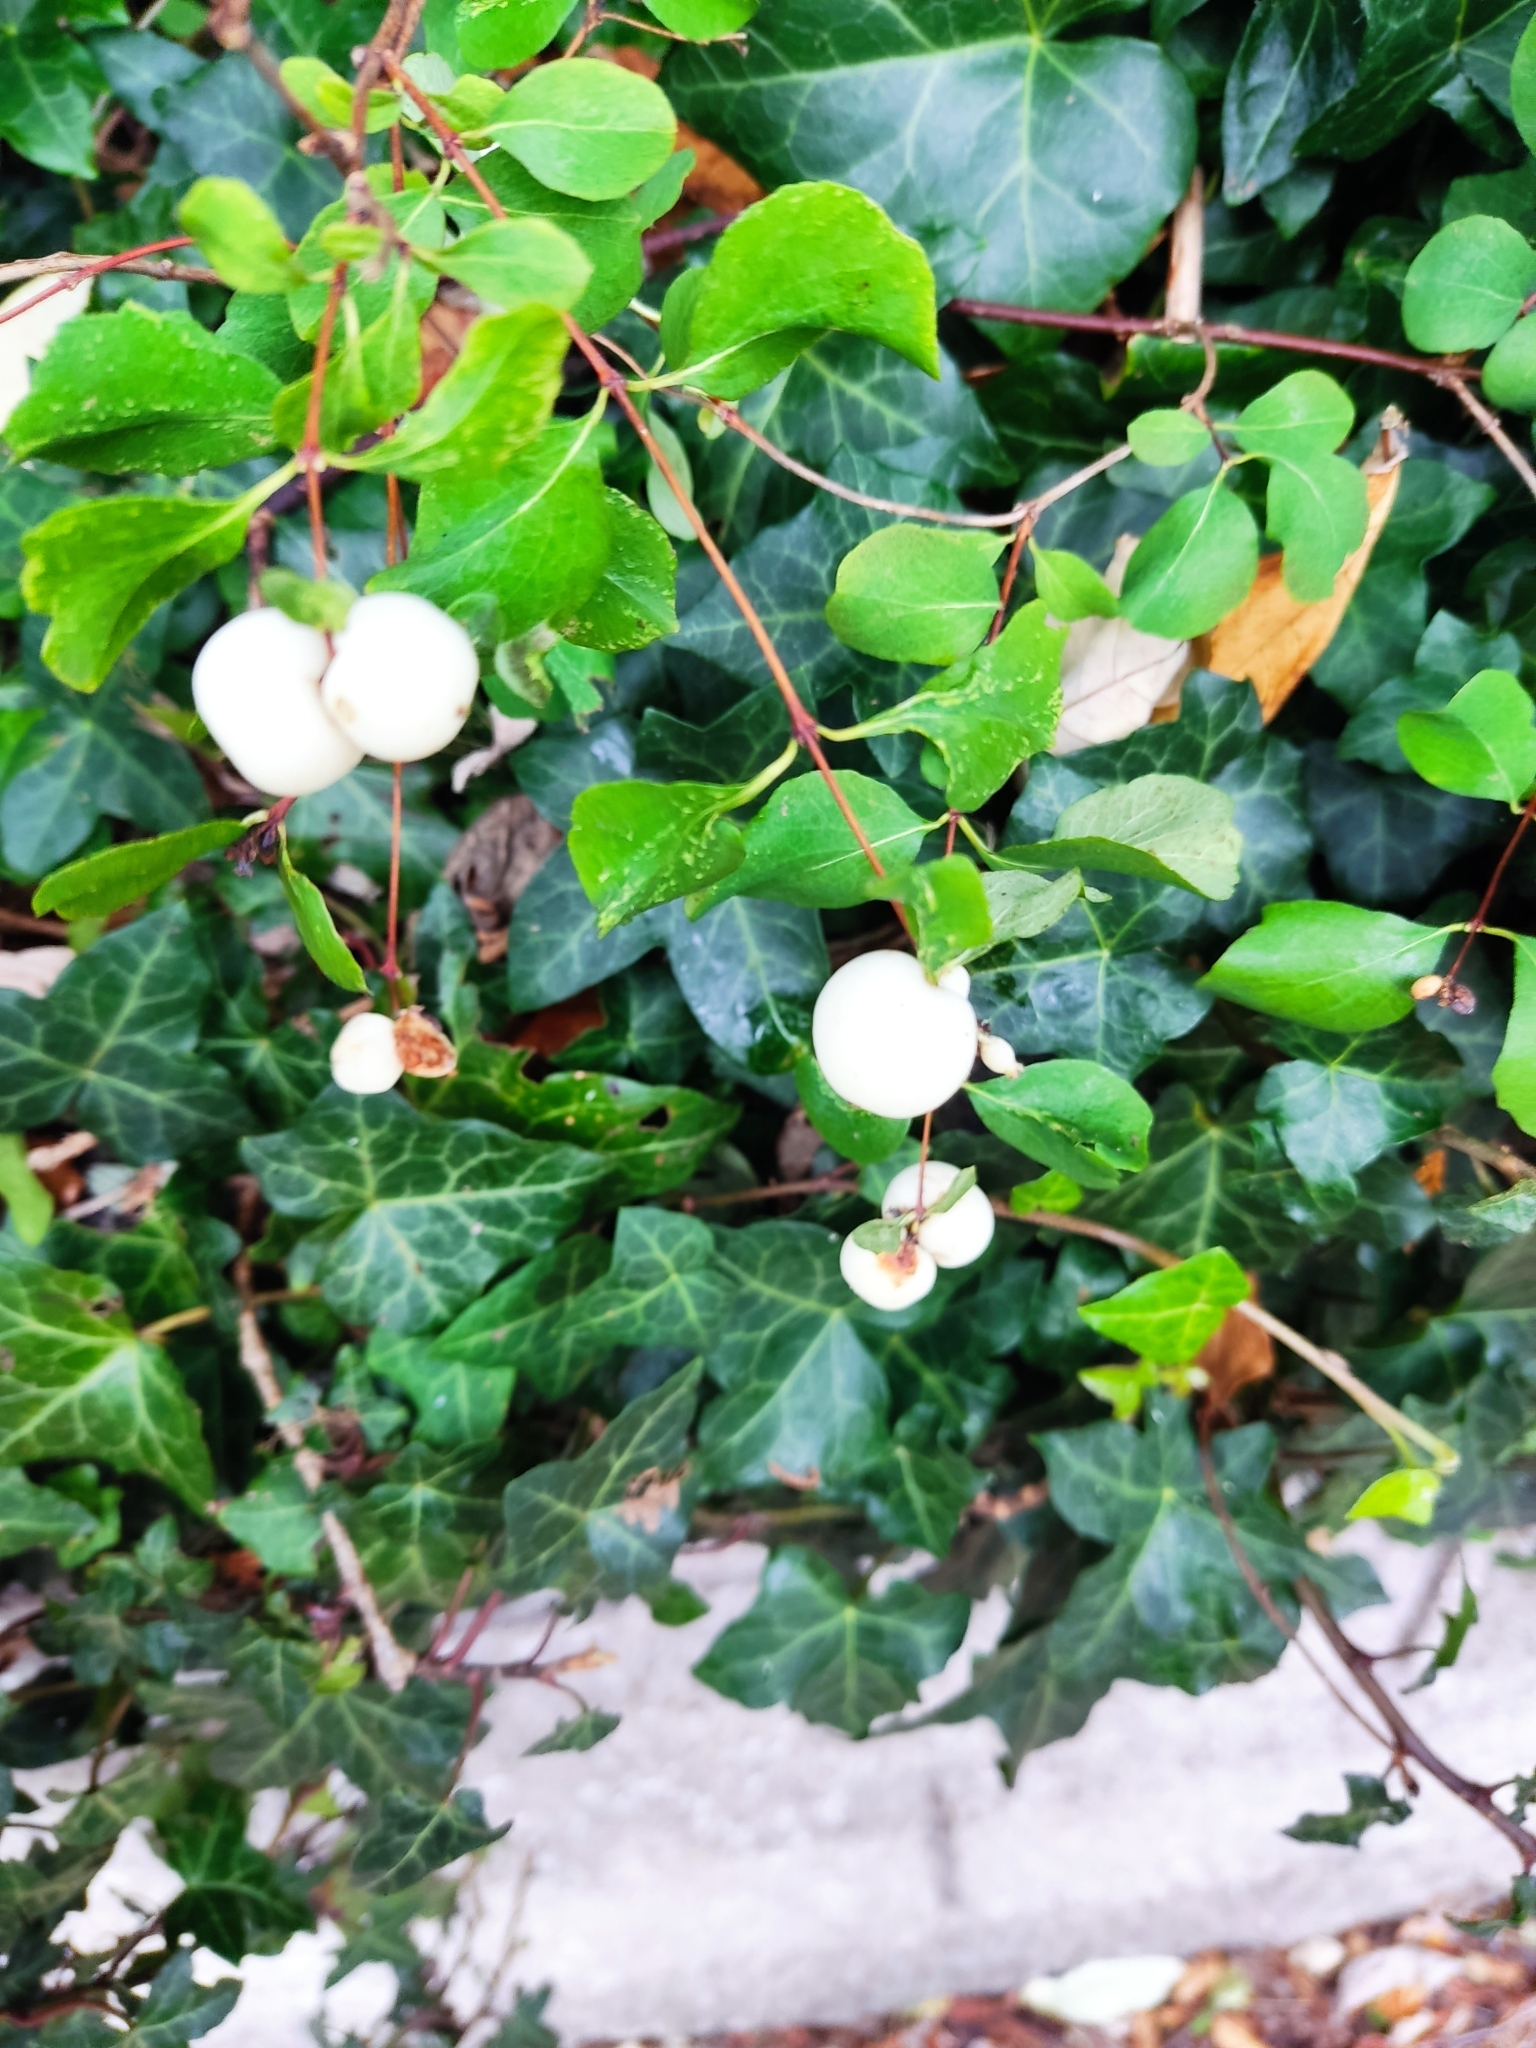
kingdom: Plantae
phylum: Tracheophyta
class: Magnoliopsida
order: Dipsacales
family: Caprifoliaceae
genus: Symphoricarpos
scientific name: Symphoricarpos albus
